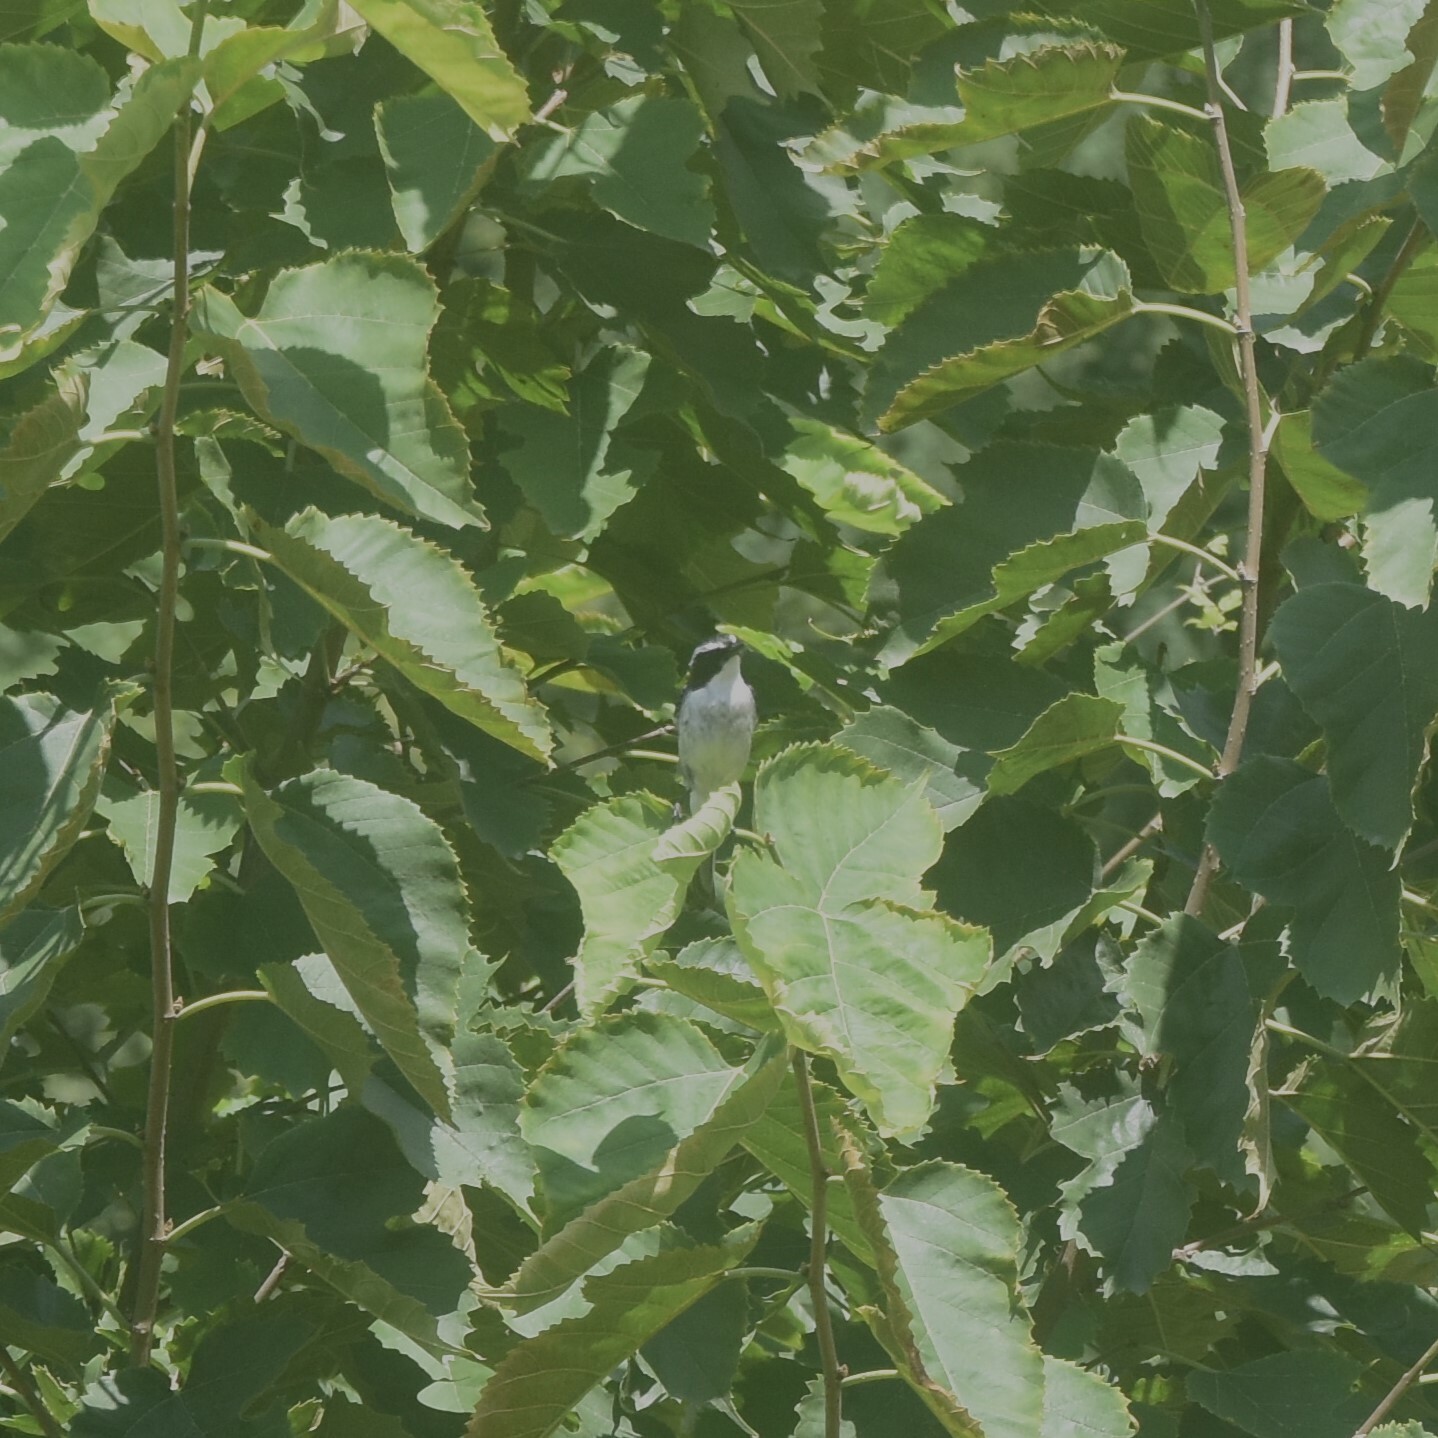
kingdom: Animalia
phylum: Chordata
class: Aves
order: Passeriformes
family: Muscicapidae
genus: Saxicola
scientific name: Saxicola ferreus
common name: Grey bush chat
